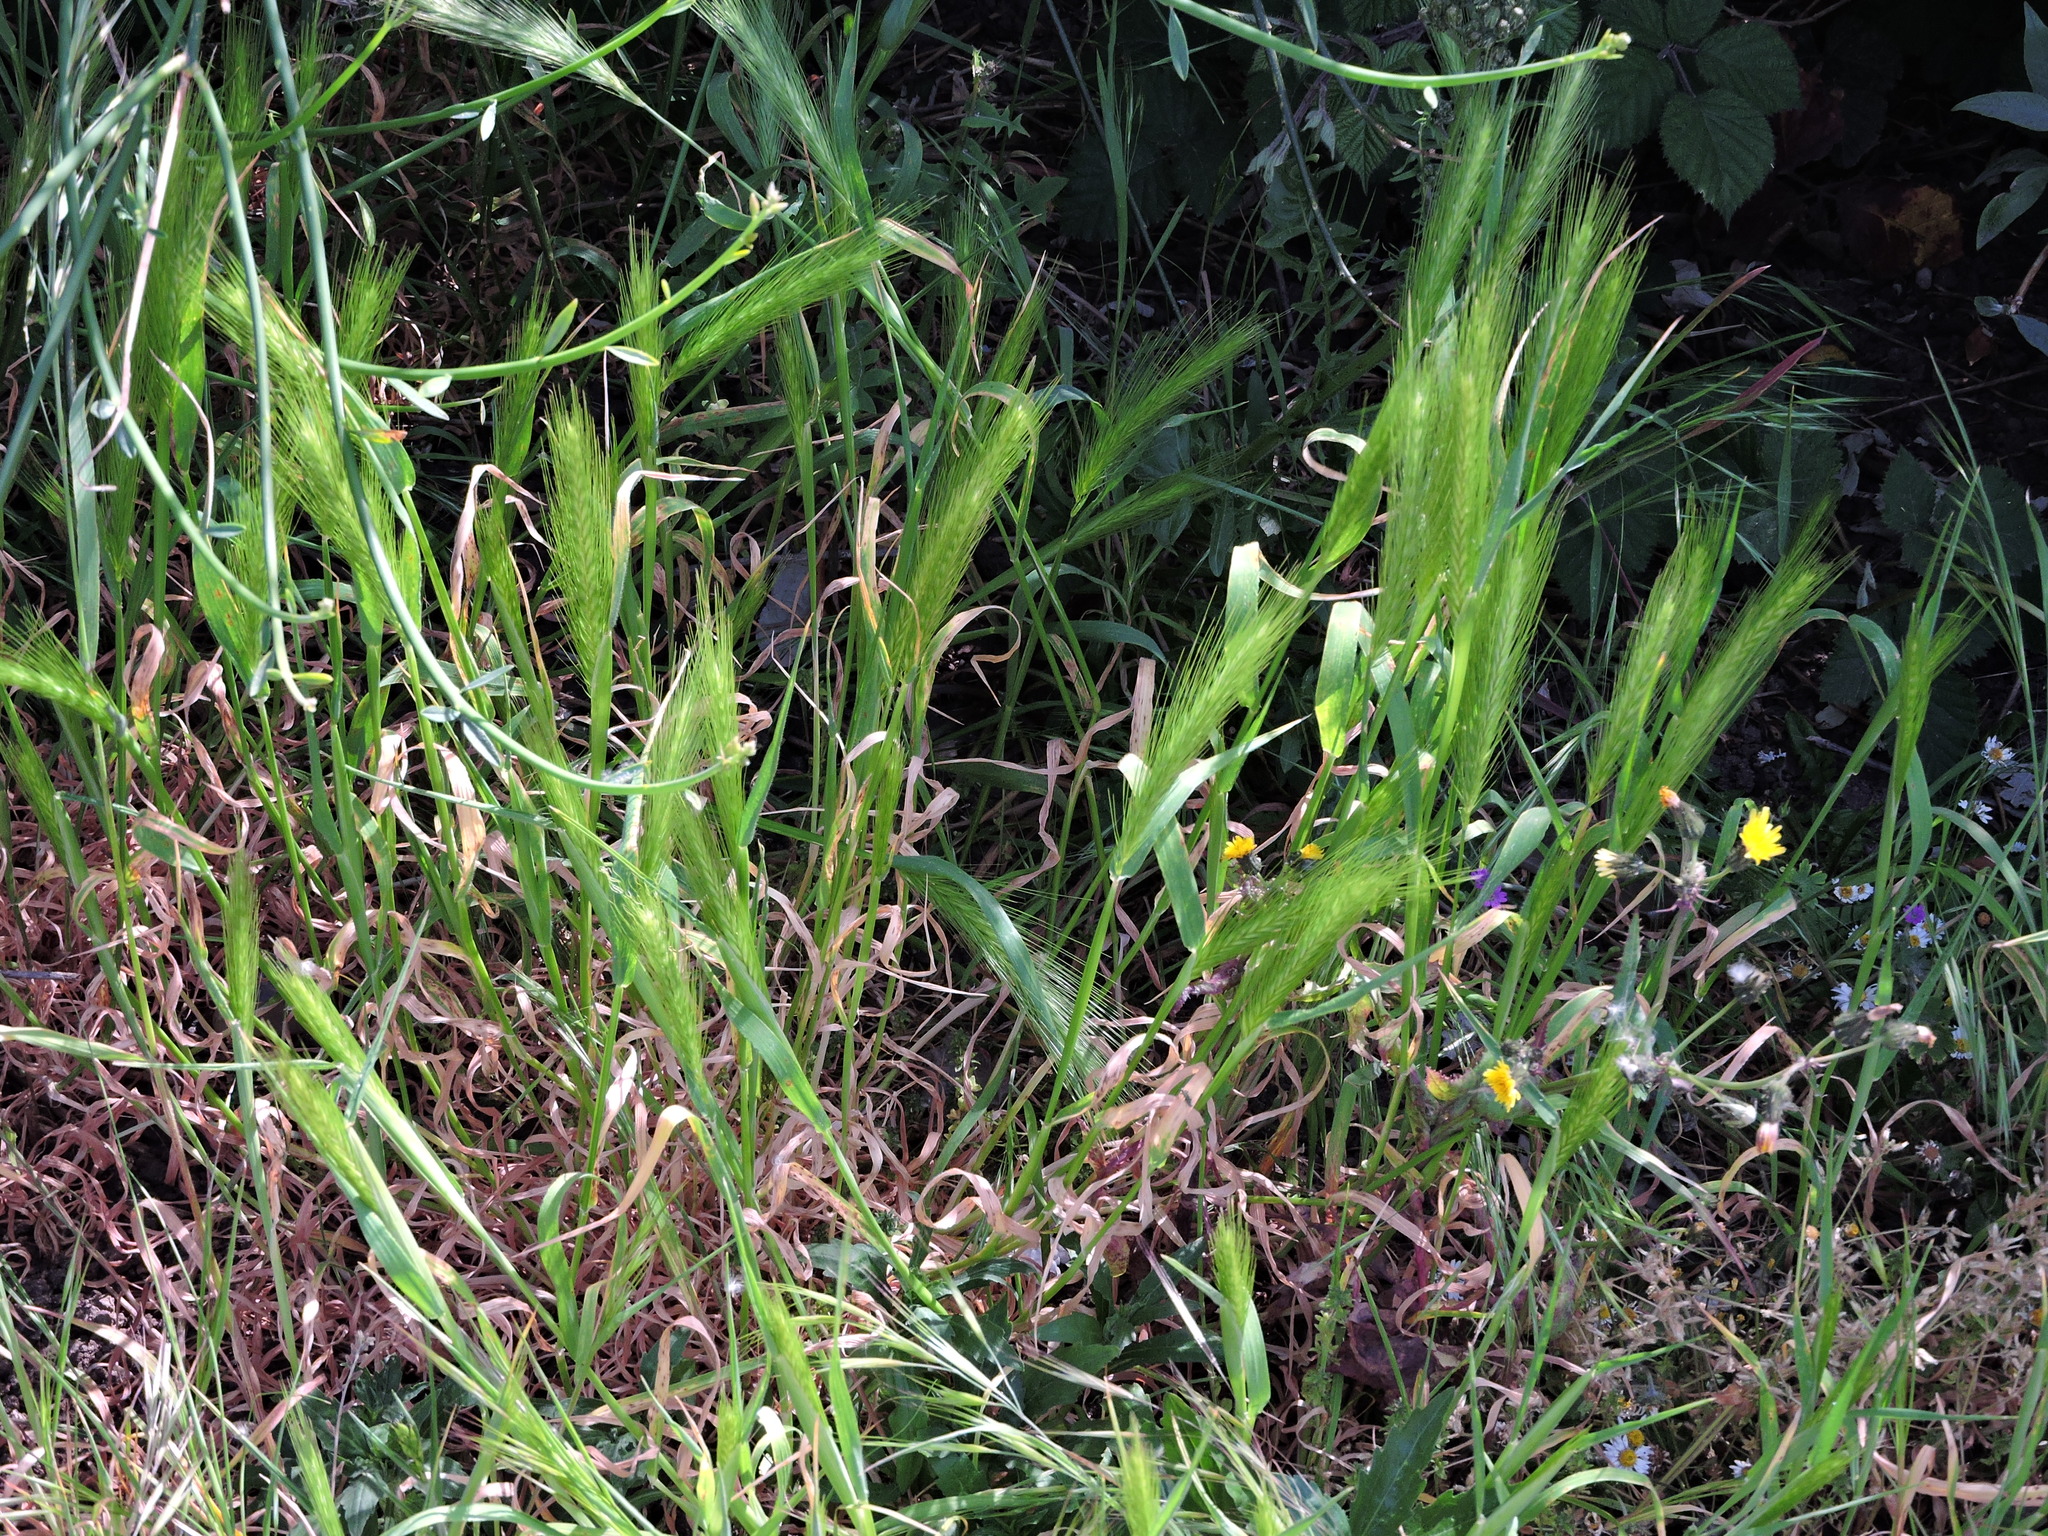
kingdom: Plantae
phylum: Tracheophyta
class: Liliopsida
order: Poales
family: Poaceae
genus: Hordeum
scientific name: Hordeum murinum
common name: Wall barley
